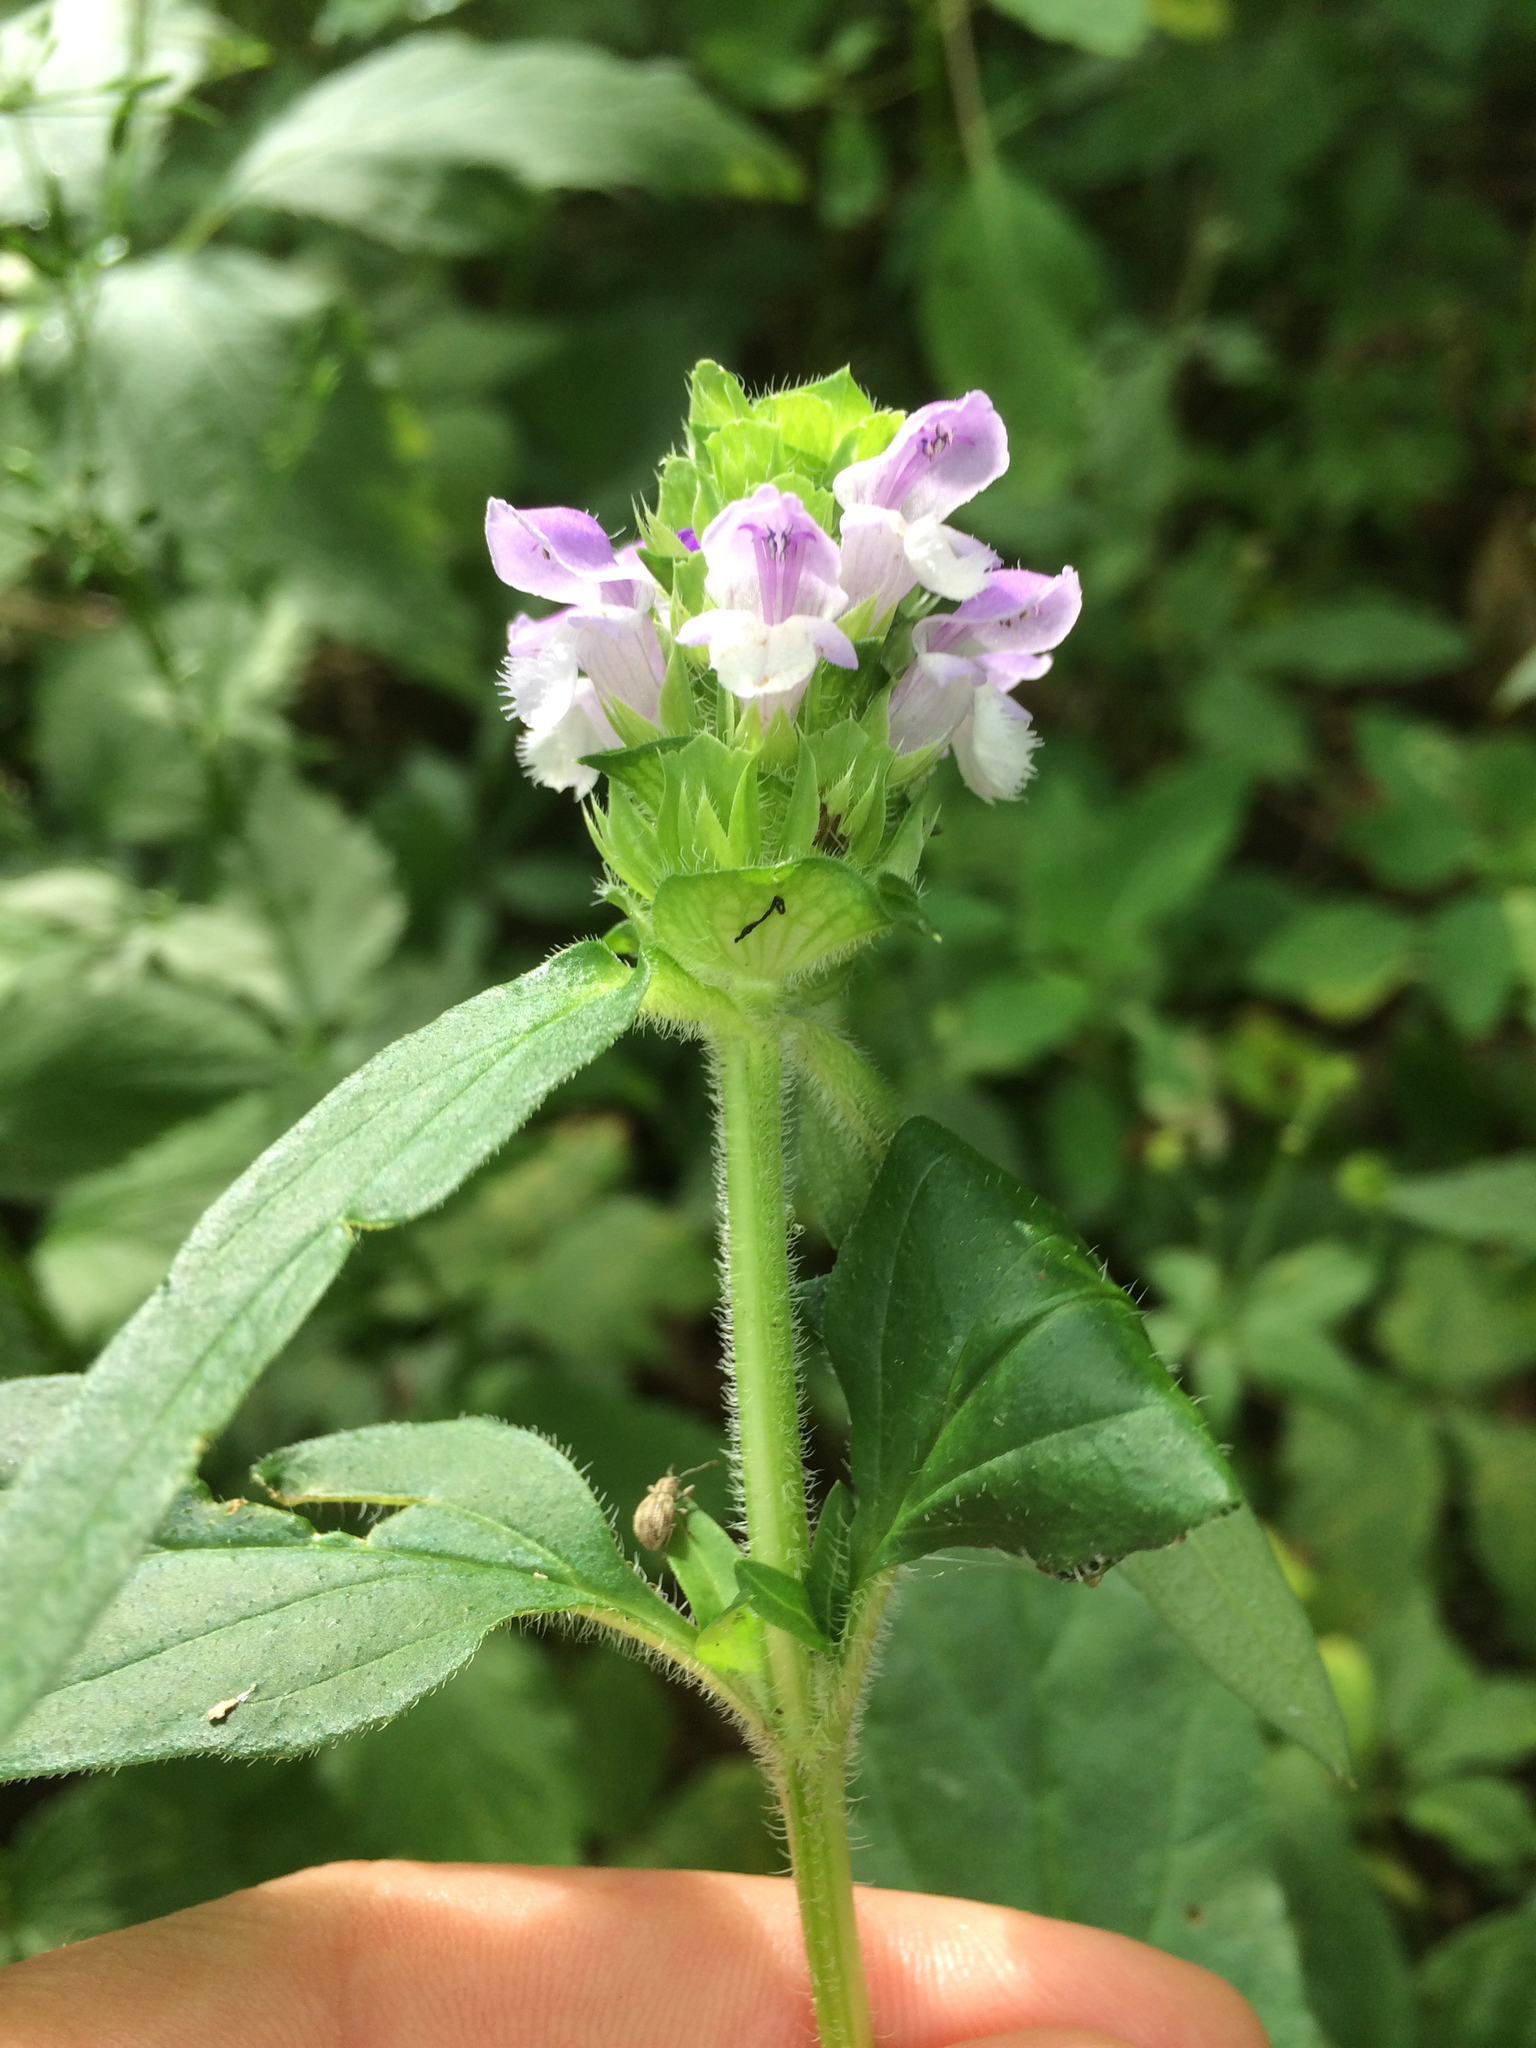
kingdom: Plantae
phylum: Tracheophyta
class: Magnoliopsida
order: Lamiales
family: Lamiaceae
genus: Prunella
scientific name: Prunella vulgaris
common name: Heal-all
